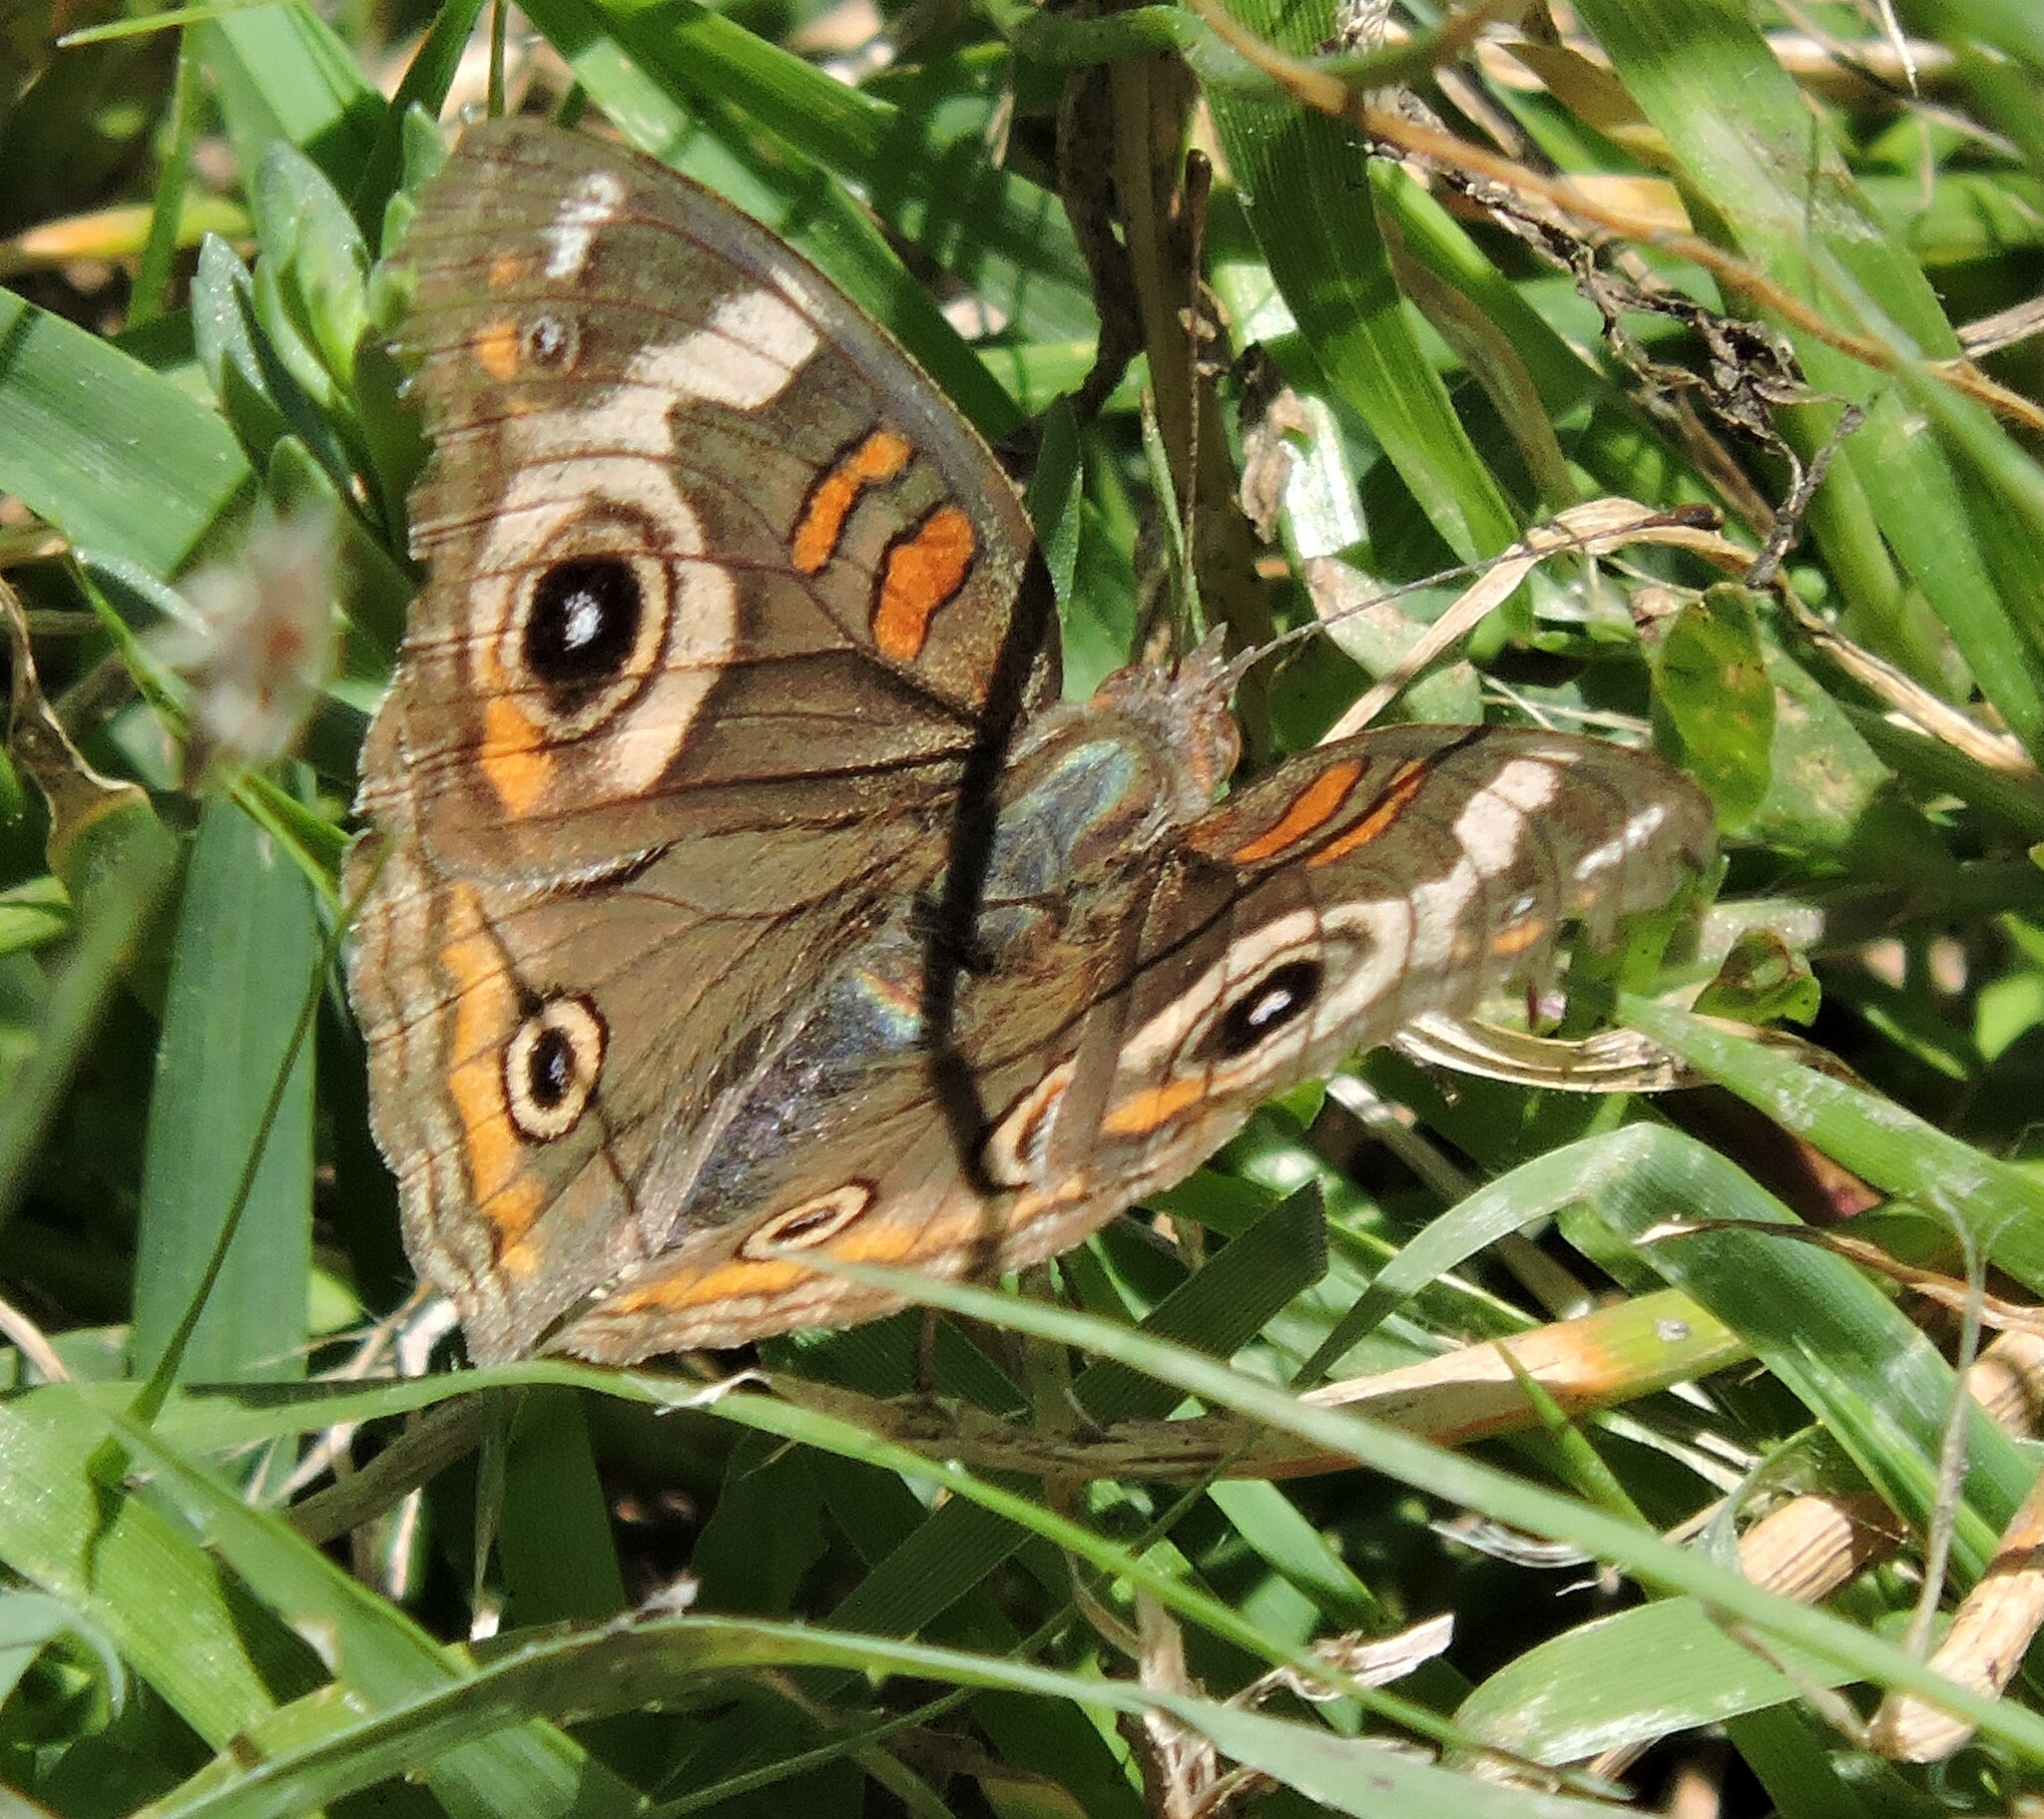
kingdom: Animalia
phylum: Arthropoda
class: Insecta
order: Lepidoptera
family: Nymphalidae
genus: Junonia
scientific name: Junonia grisea
